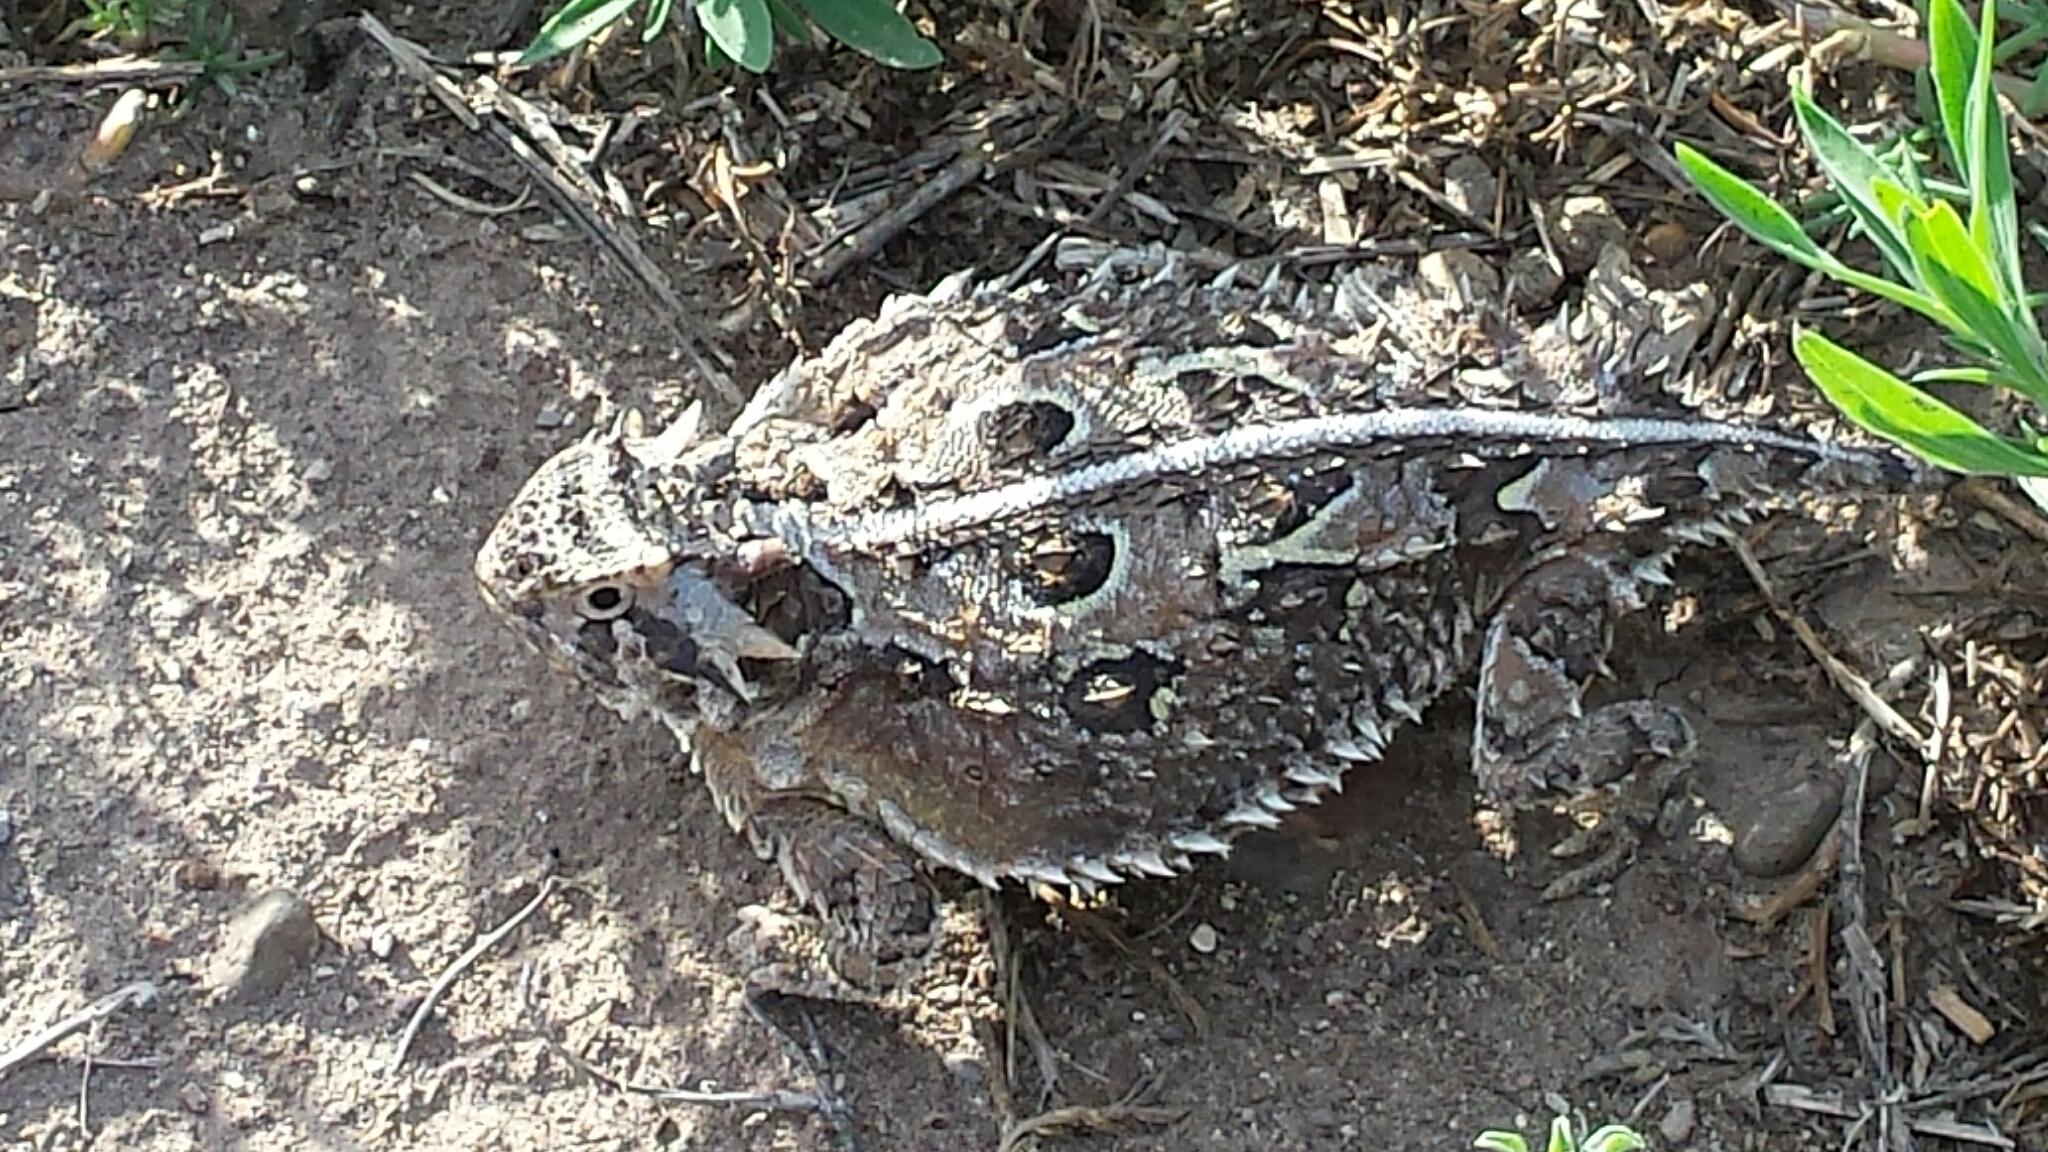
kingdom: Animalia
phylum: Chordata
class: Squamata
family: Phrynosomatidae
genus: Phrynosoma
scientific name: Phrynosoma cornutum
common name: Texas horned lizard
